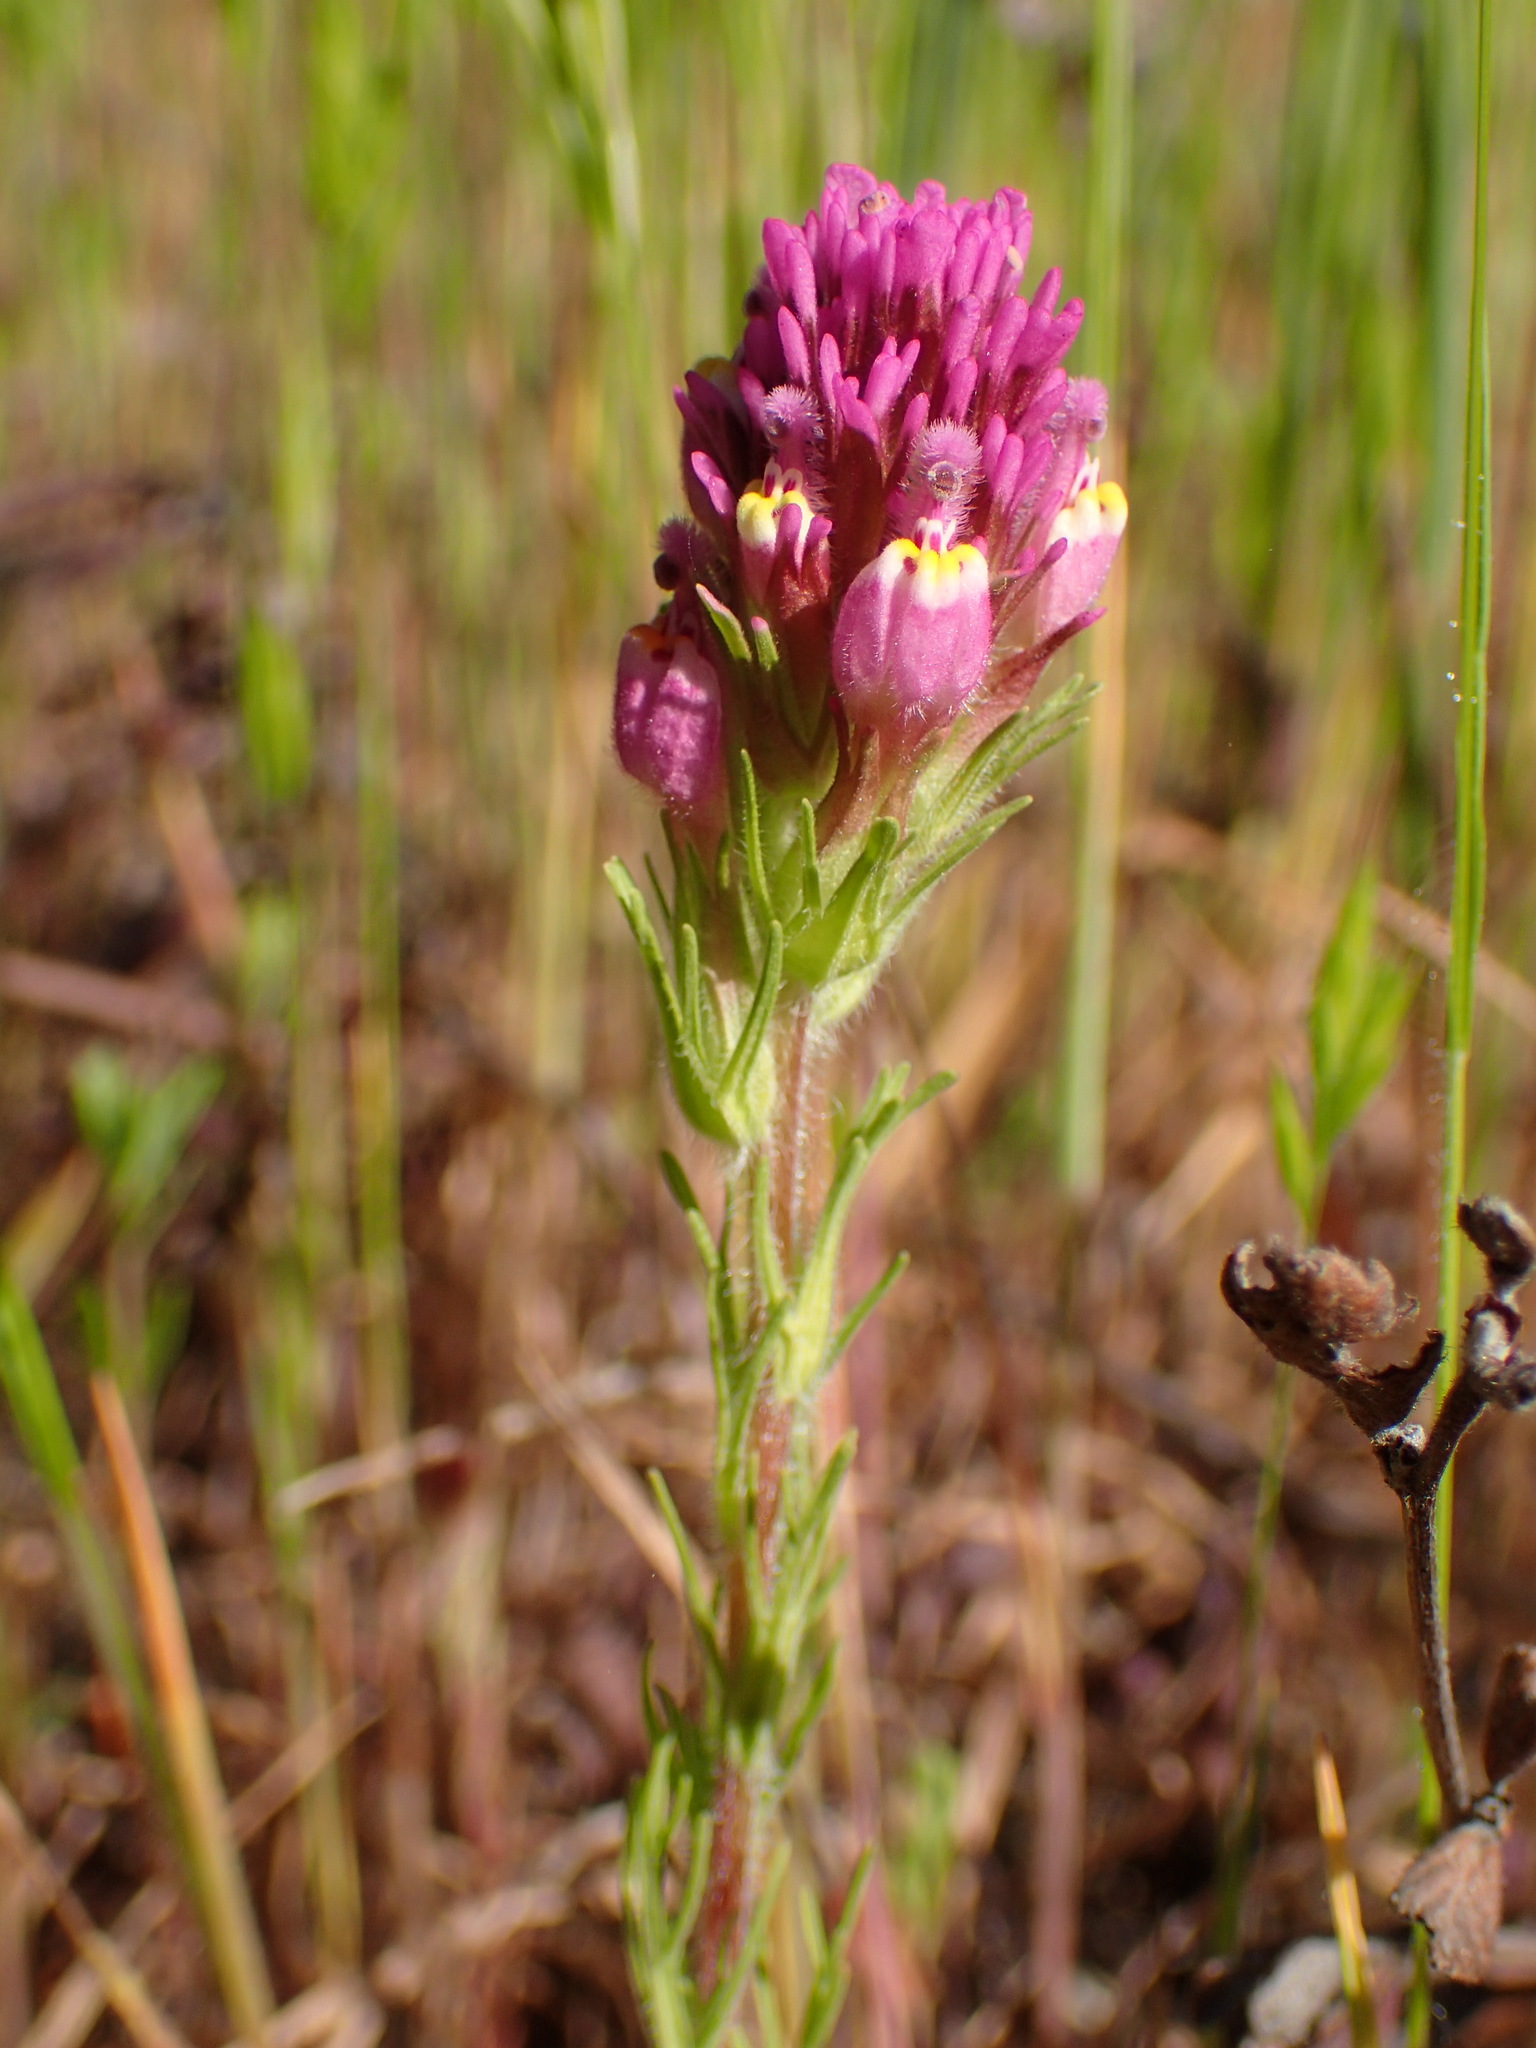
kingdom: Plantae
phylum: Tracheophyta
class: Magnoliopsida
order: Lamiales
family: Orobanchaceae
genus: Castilleja
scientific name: Castilleja exserta
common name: Purple owl-clover
